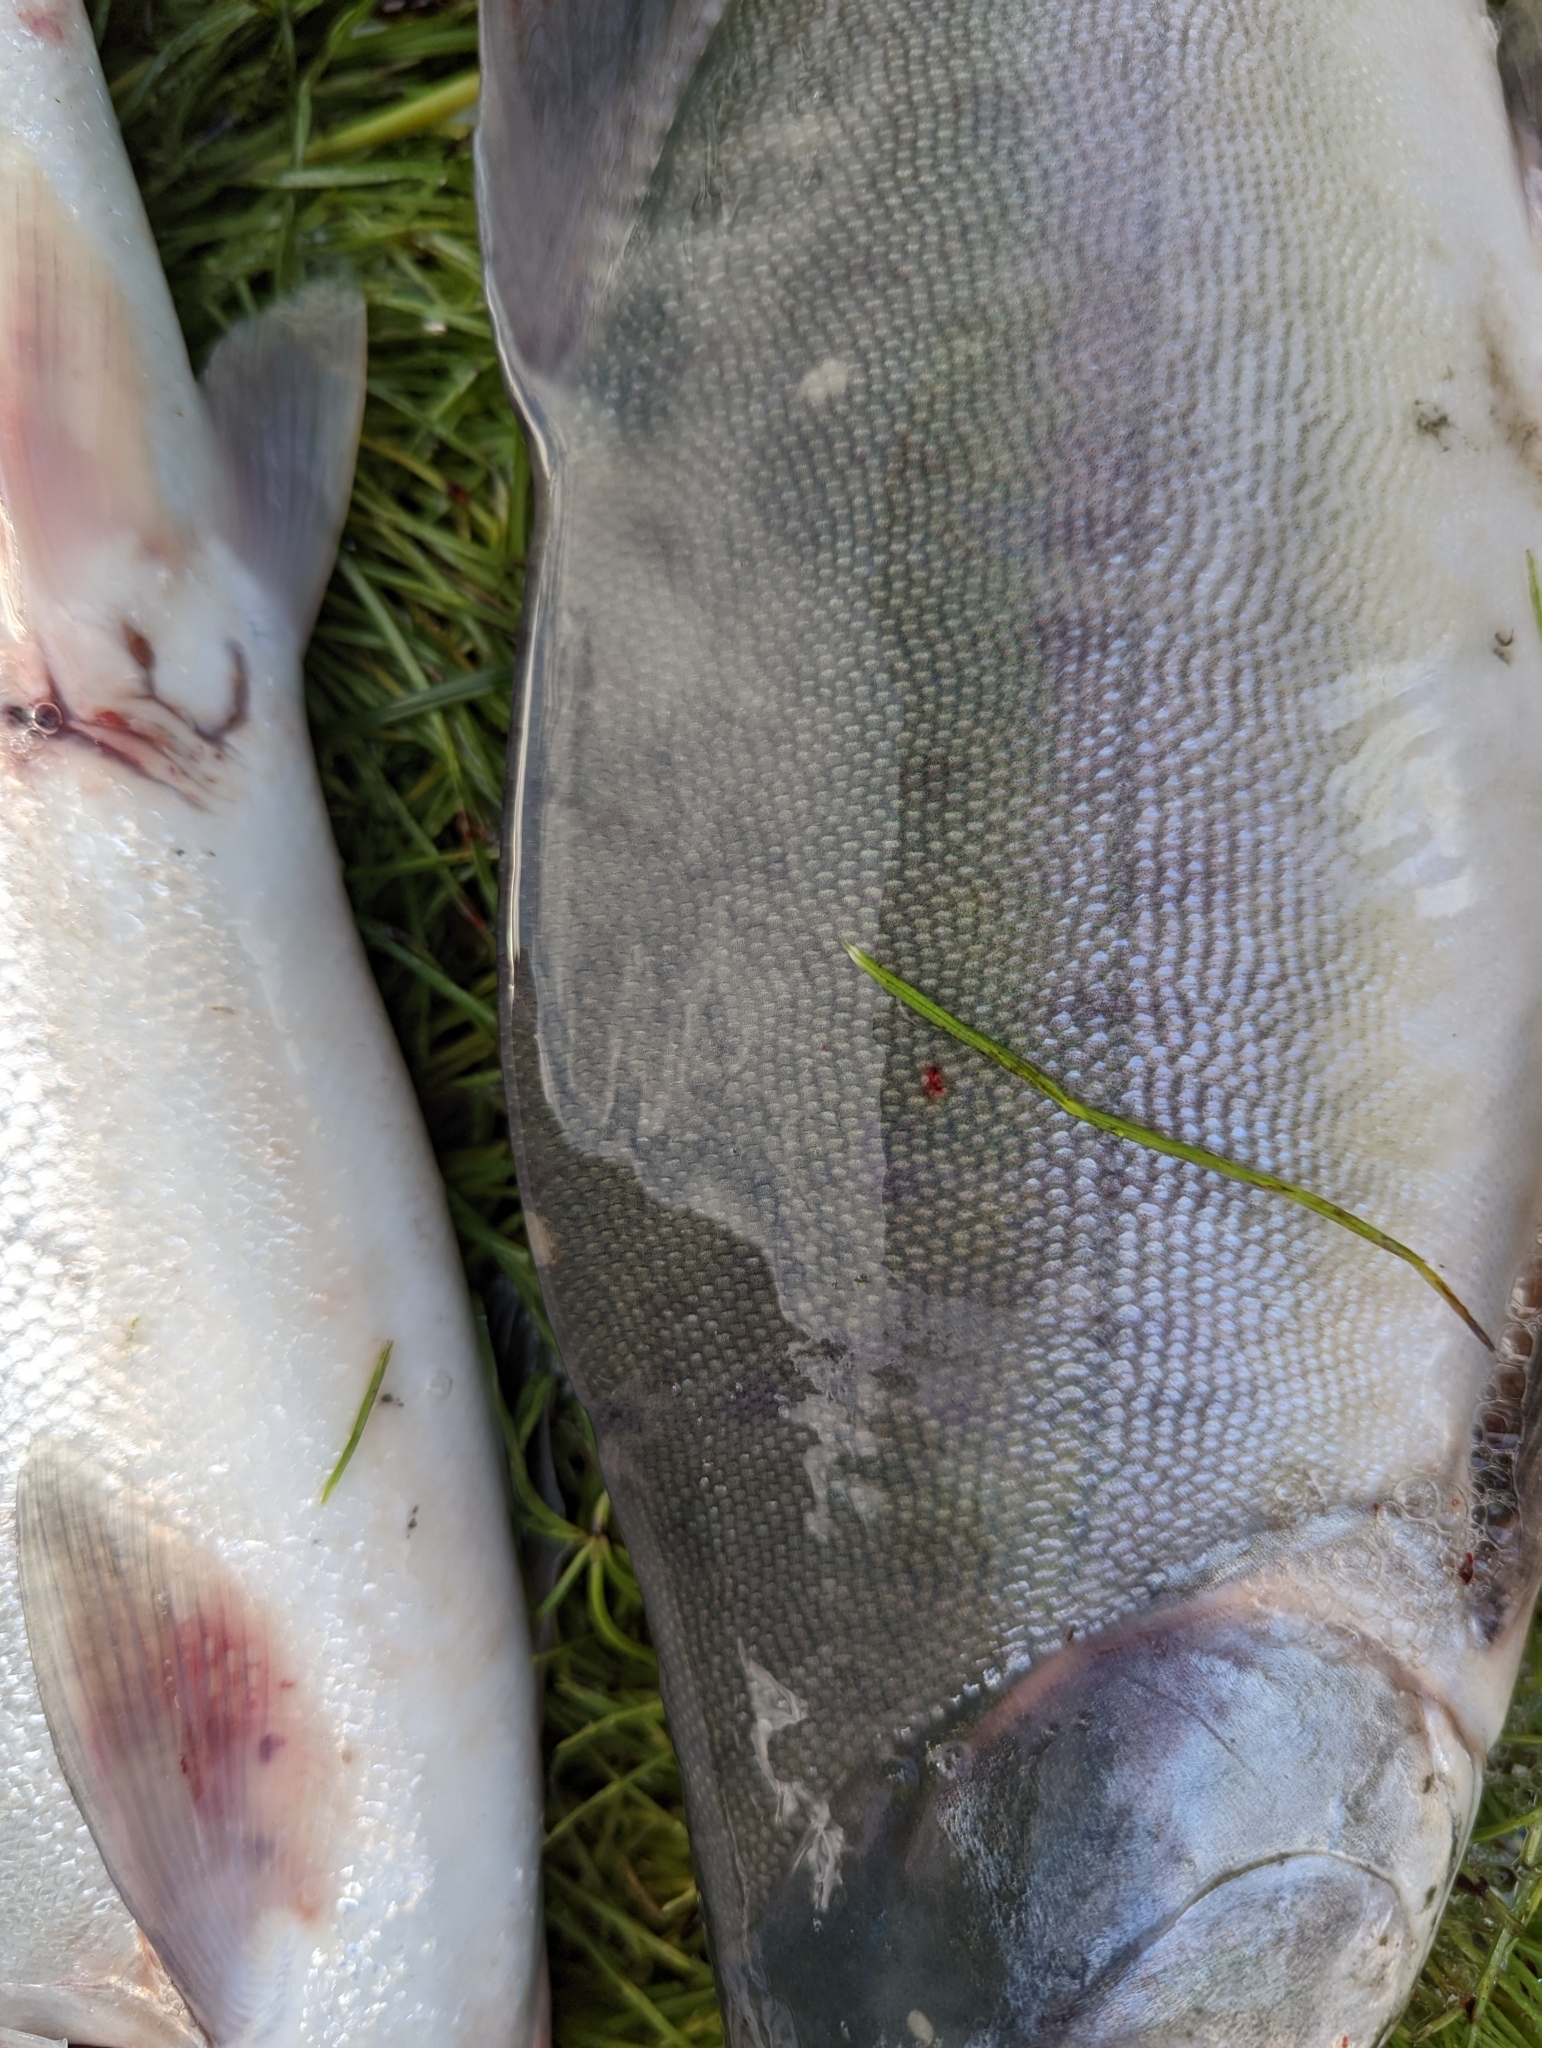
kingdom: Animalia
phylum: Chordata
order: Salmoniformes
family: Salmonidae
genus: Oncorhynchus
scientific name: Oncorhynchus gorbuscha
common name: Humpback salmon
